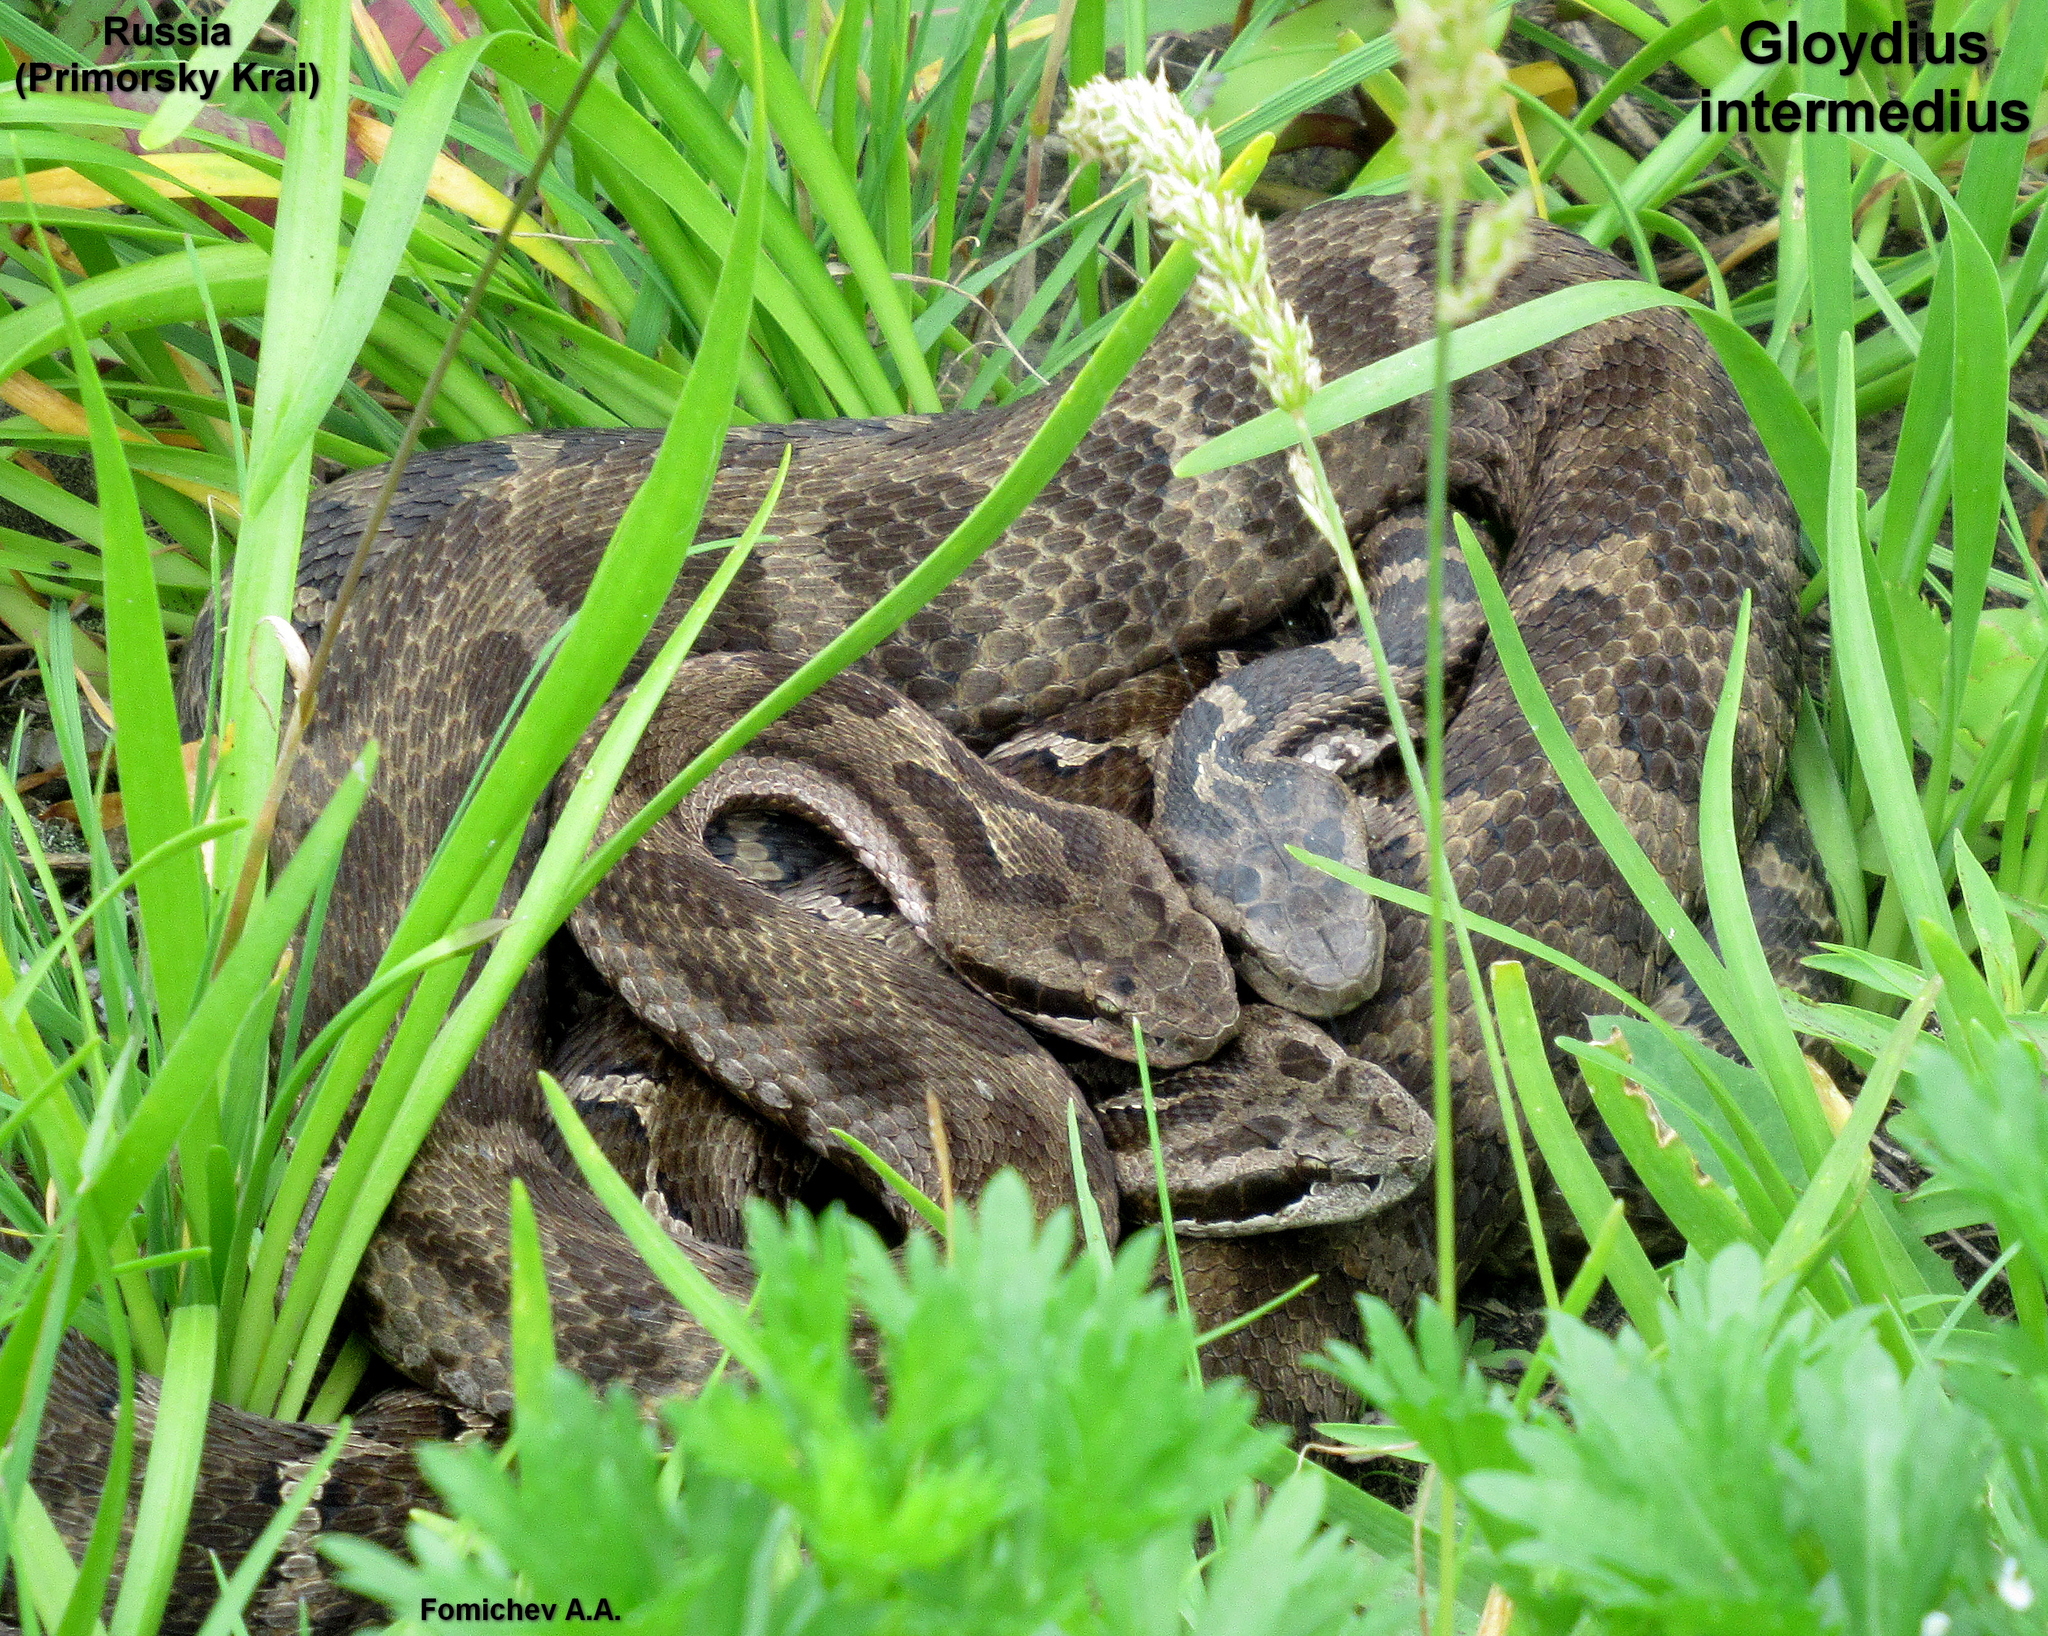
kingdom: Animalia
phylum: Chordata
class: Squamata
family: Viperidae
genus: Gloydius
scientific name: Gloydius intermedius
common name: Central asian pit viper
